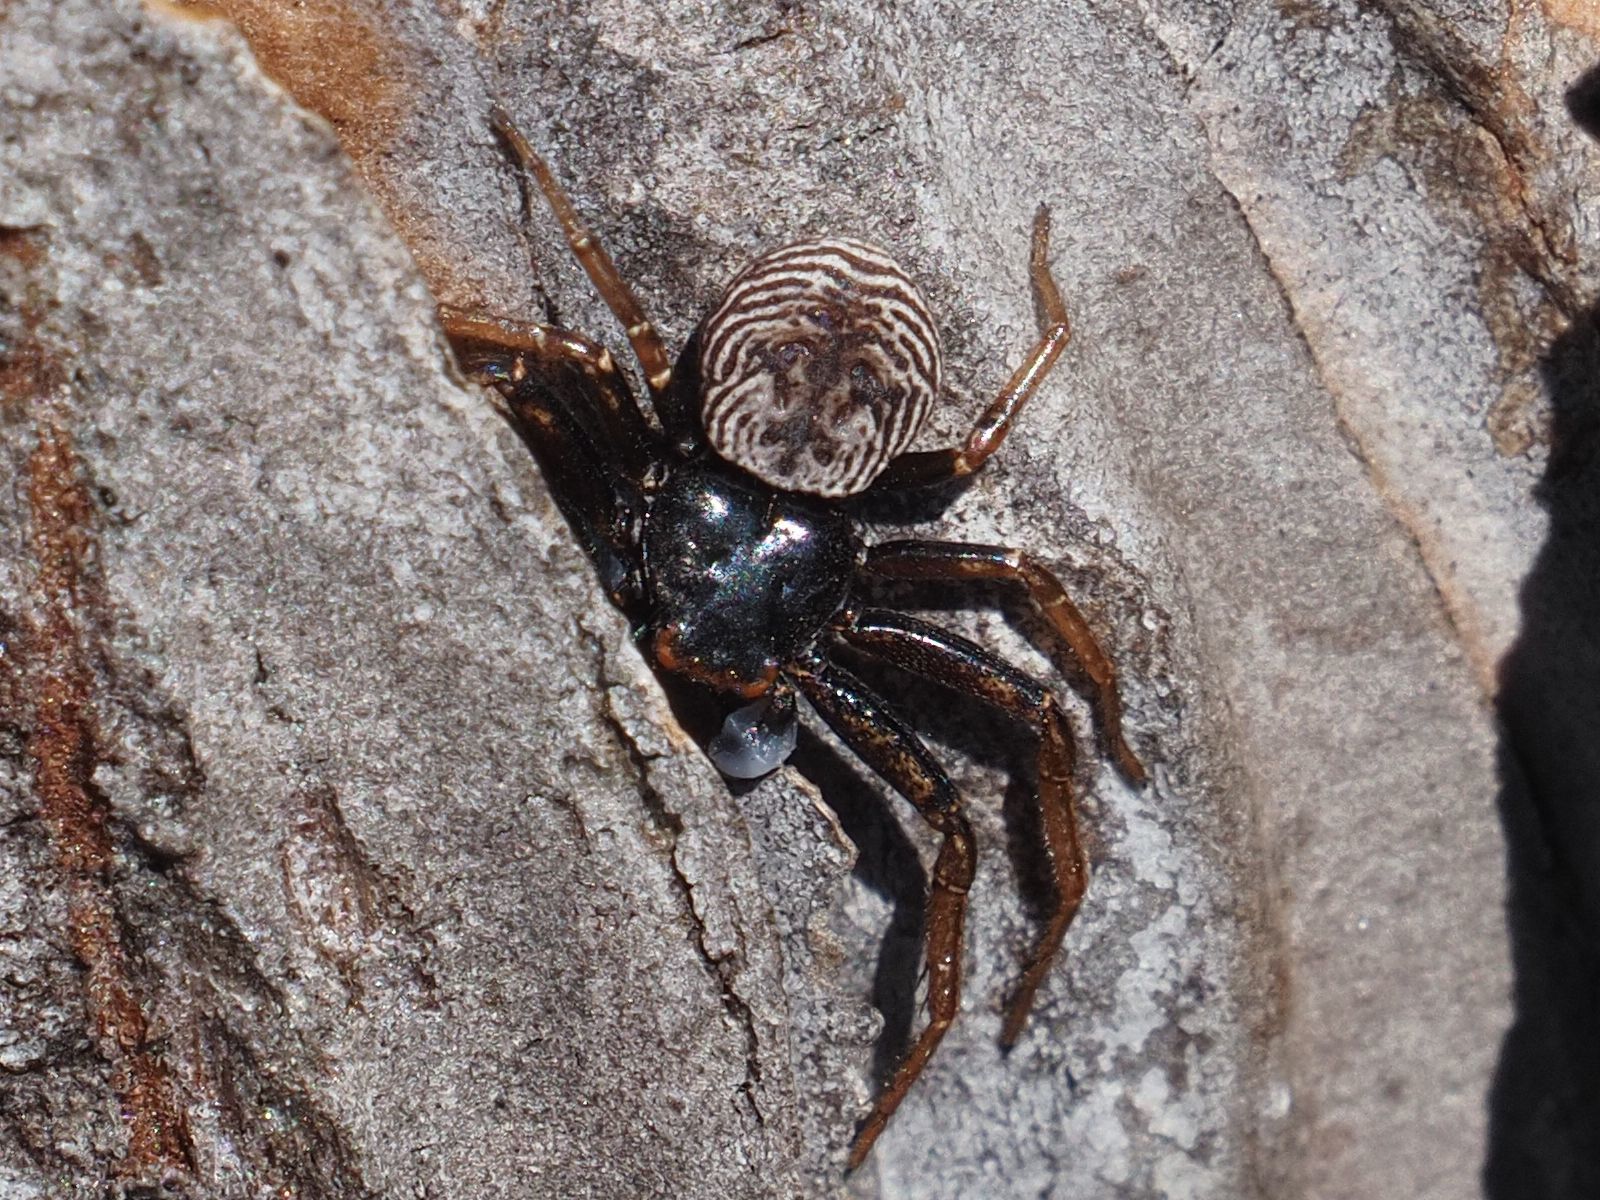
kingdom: Animalia
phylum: Arthropoda
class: Arachnida
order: Araneae
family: Thomisidae
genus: Coriarachne
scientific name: Coriarachne depressa
